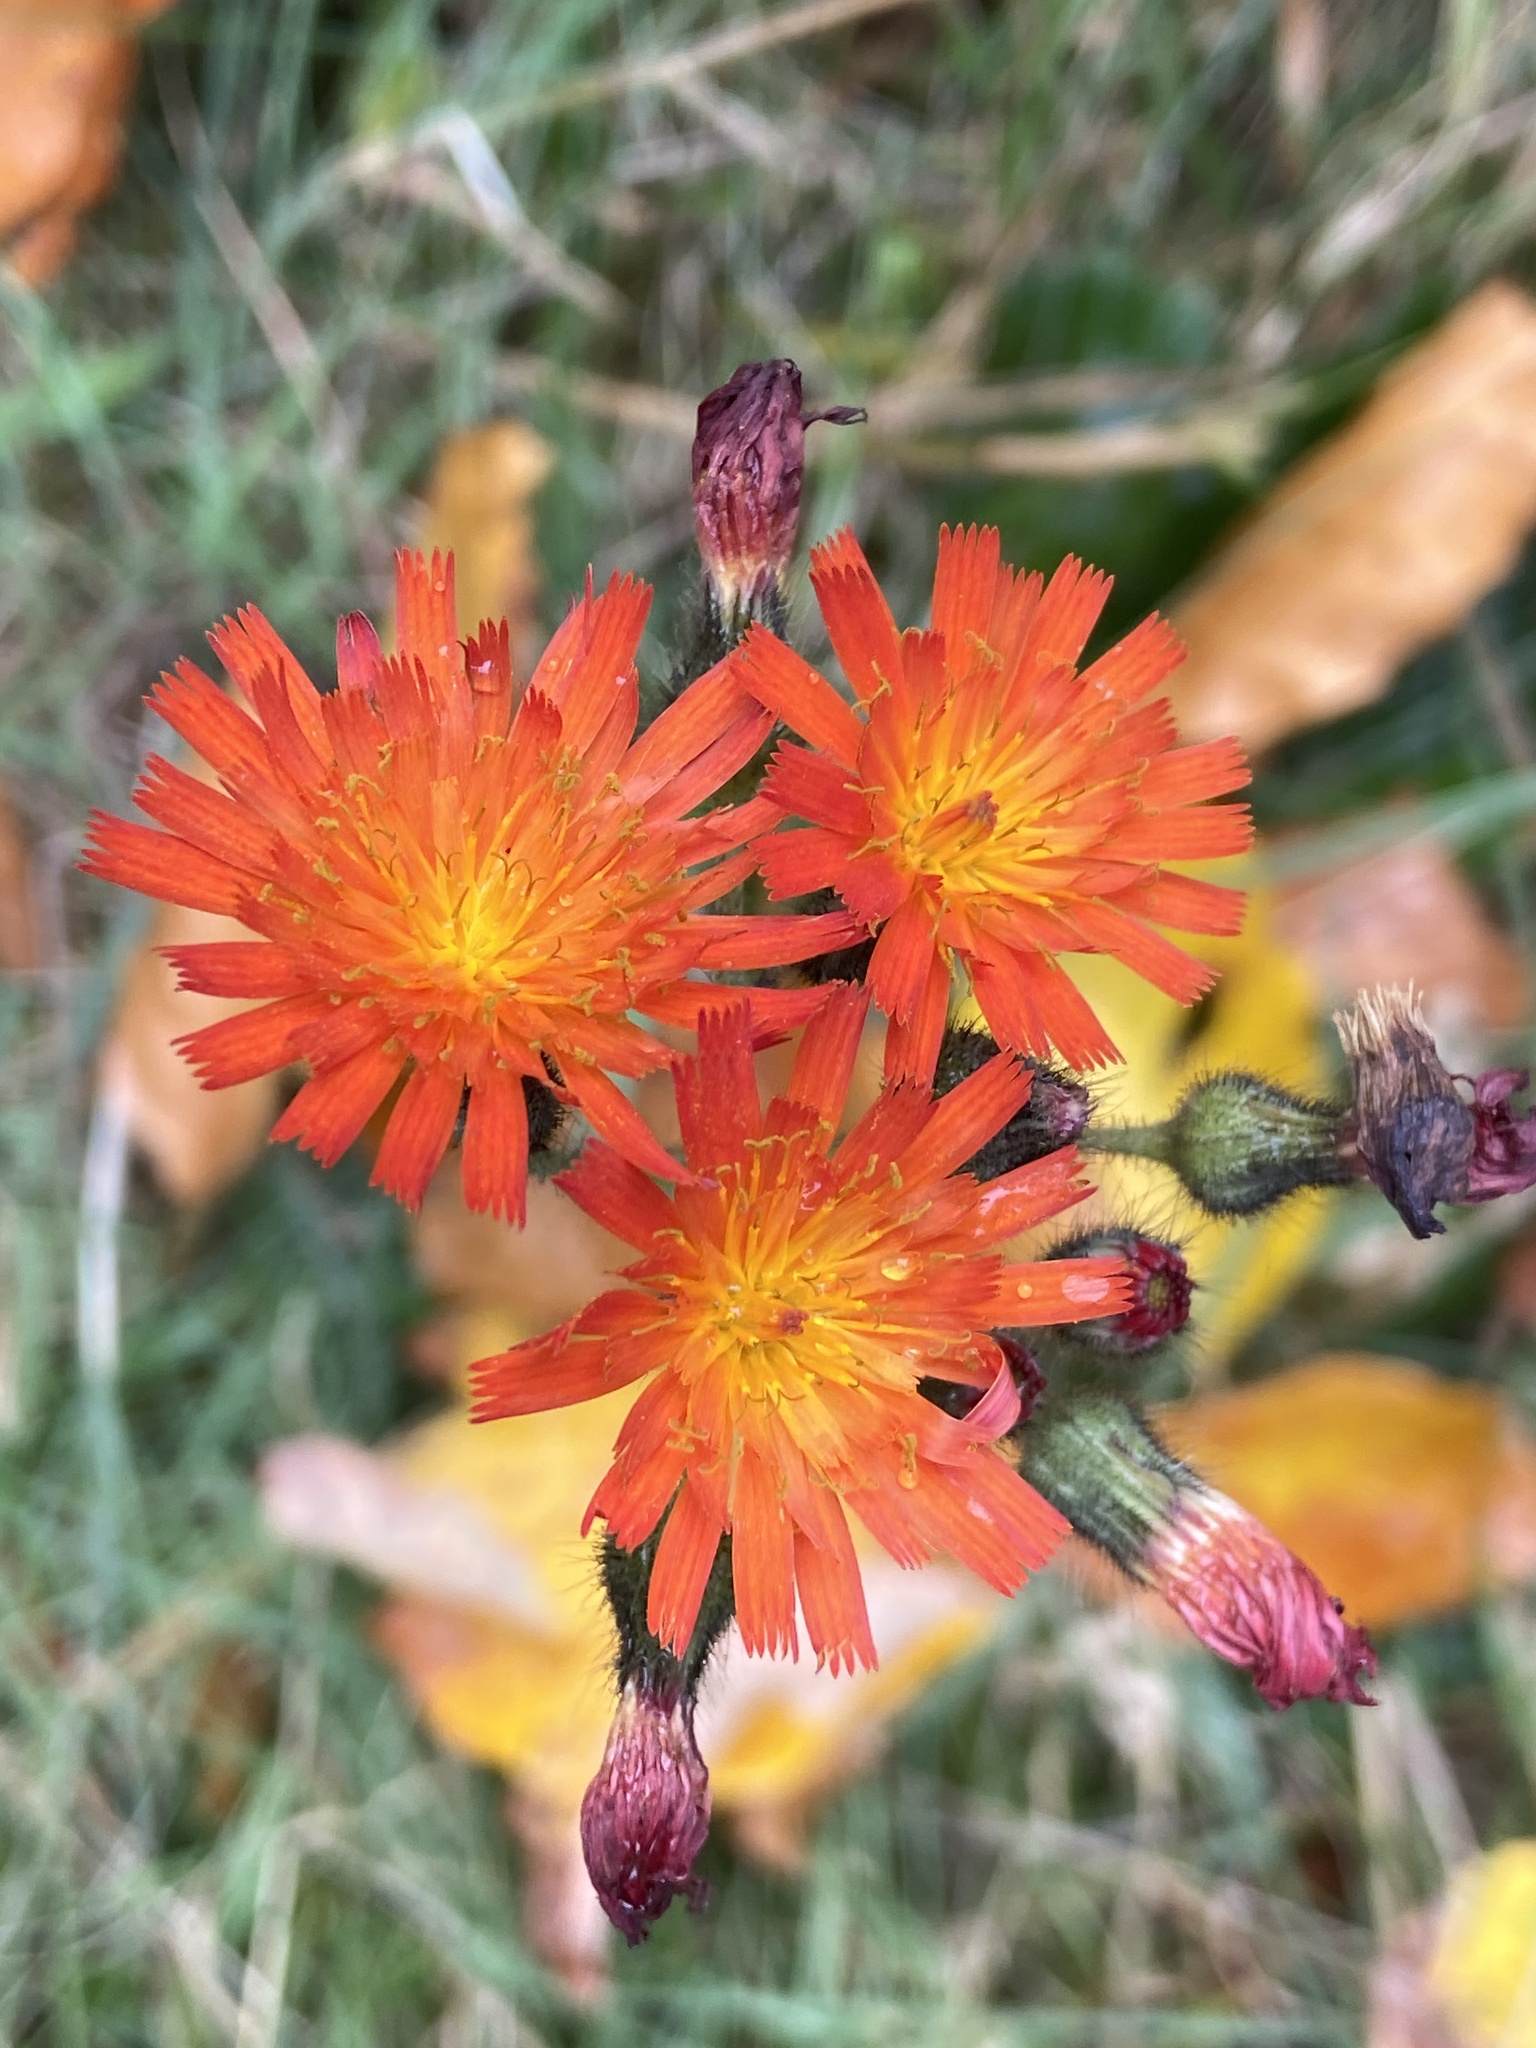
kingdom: Plantae
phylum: Tracheophyta
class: Magnoliopsida
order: Asterales
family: Asteraceae
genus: Pilosella
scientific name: Pilosella aurantiaca
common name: Fox-and-cubs
